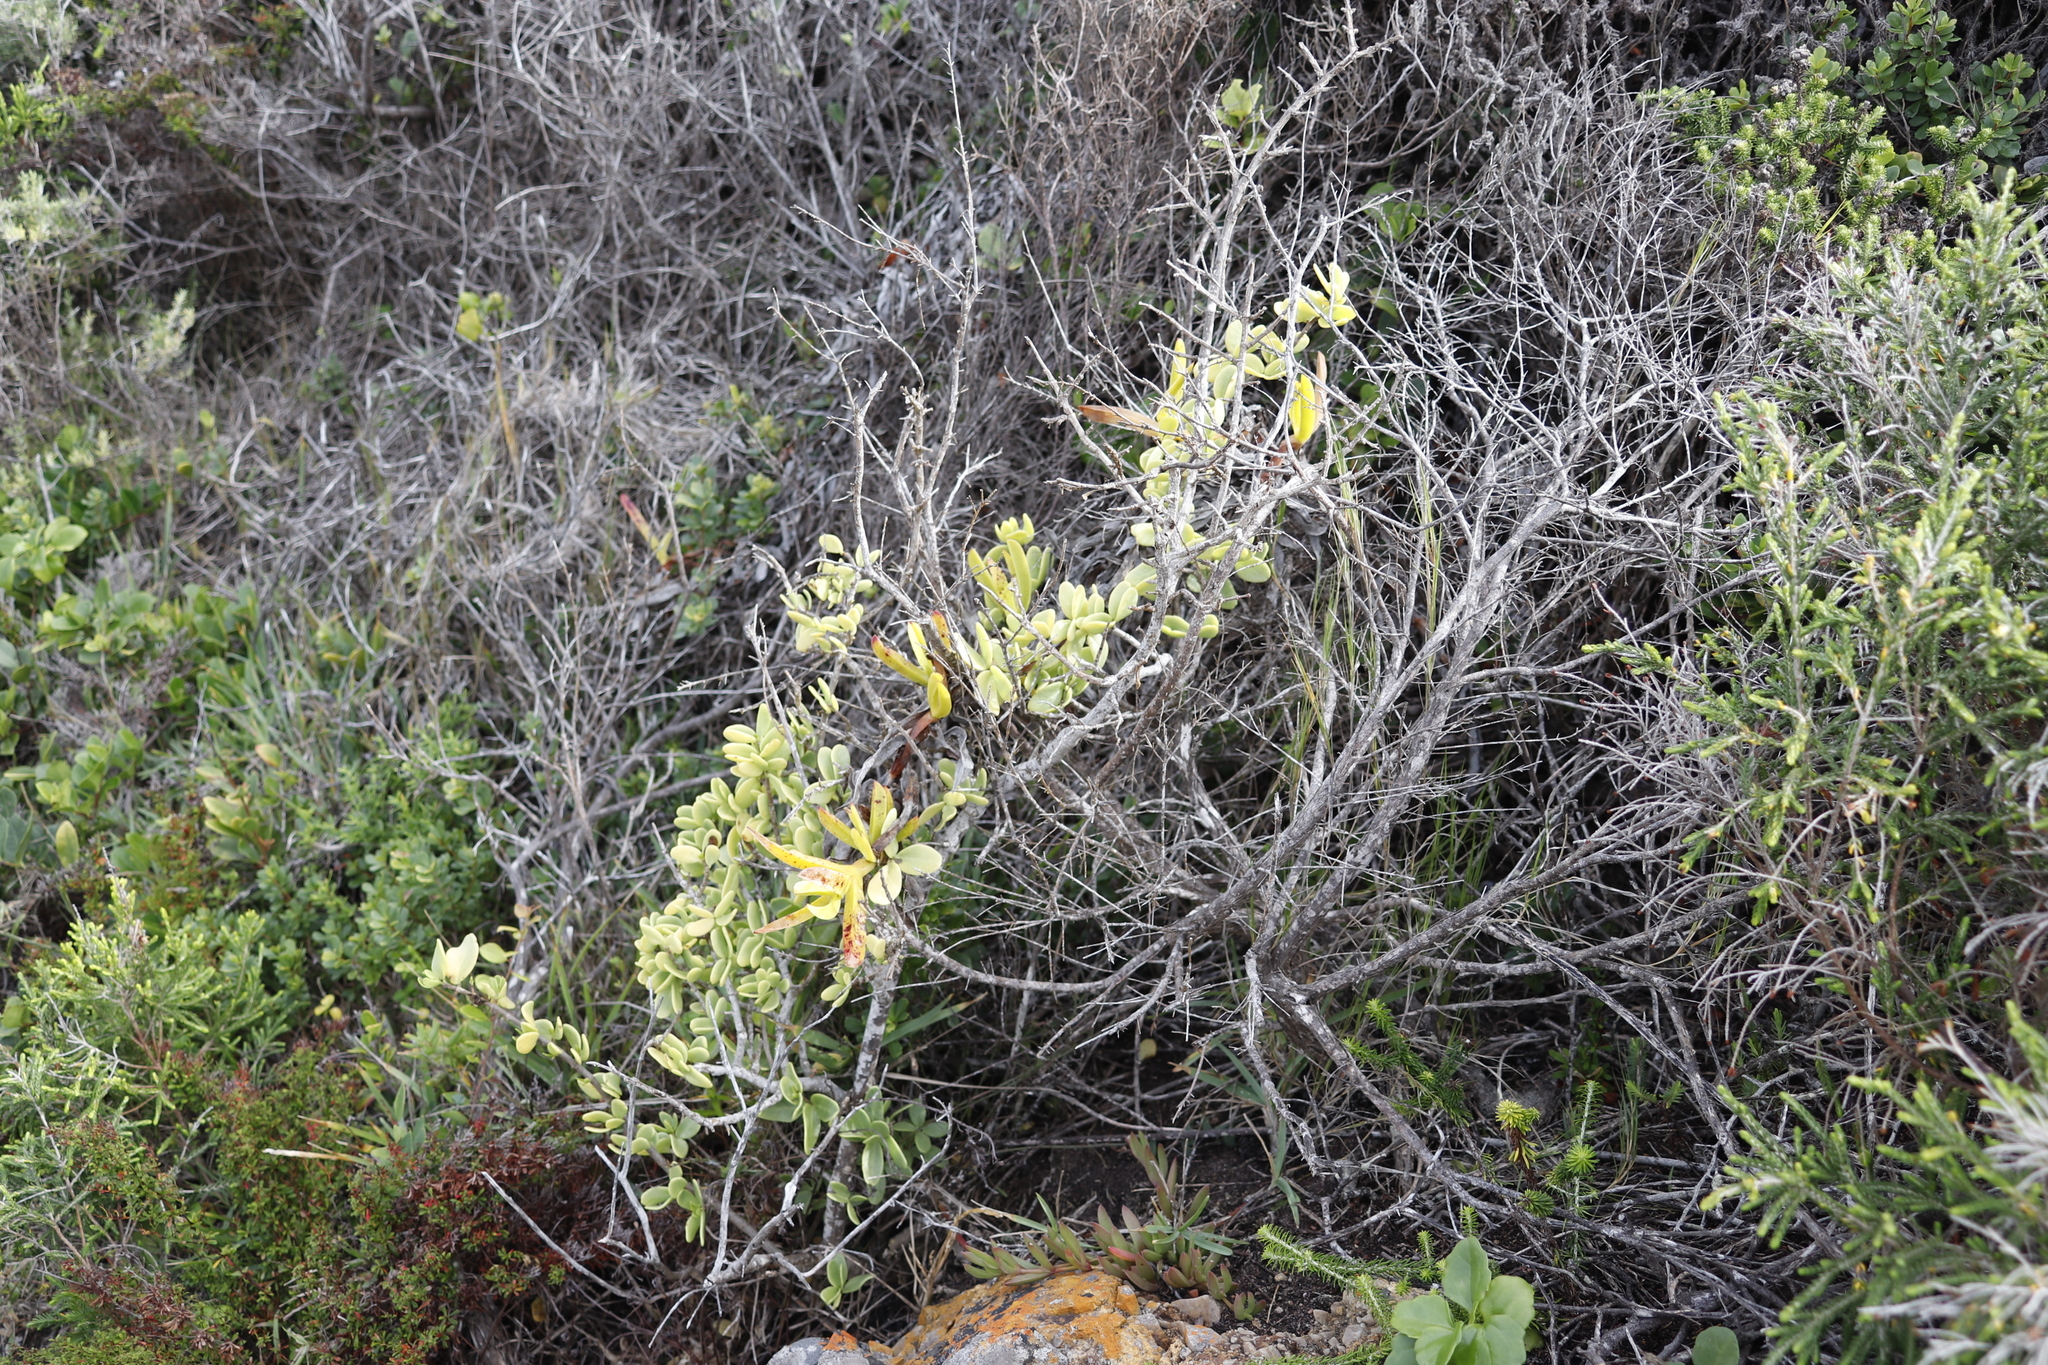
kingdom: Plantae
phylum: Tracheophyta
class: Magnoliopsida
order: Zygophyllales
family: Zygophyllaceae
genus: Roepera
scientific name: Roepera morgsana
